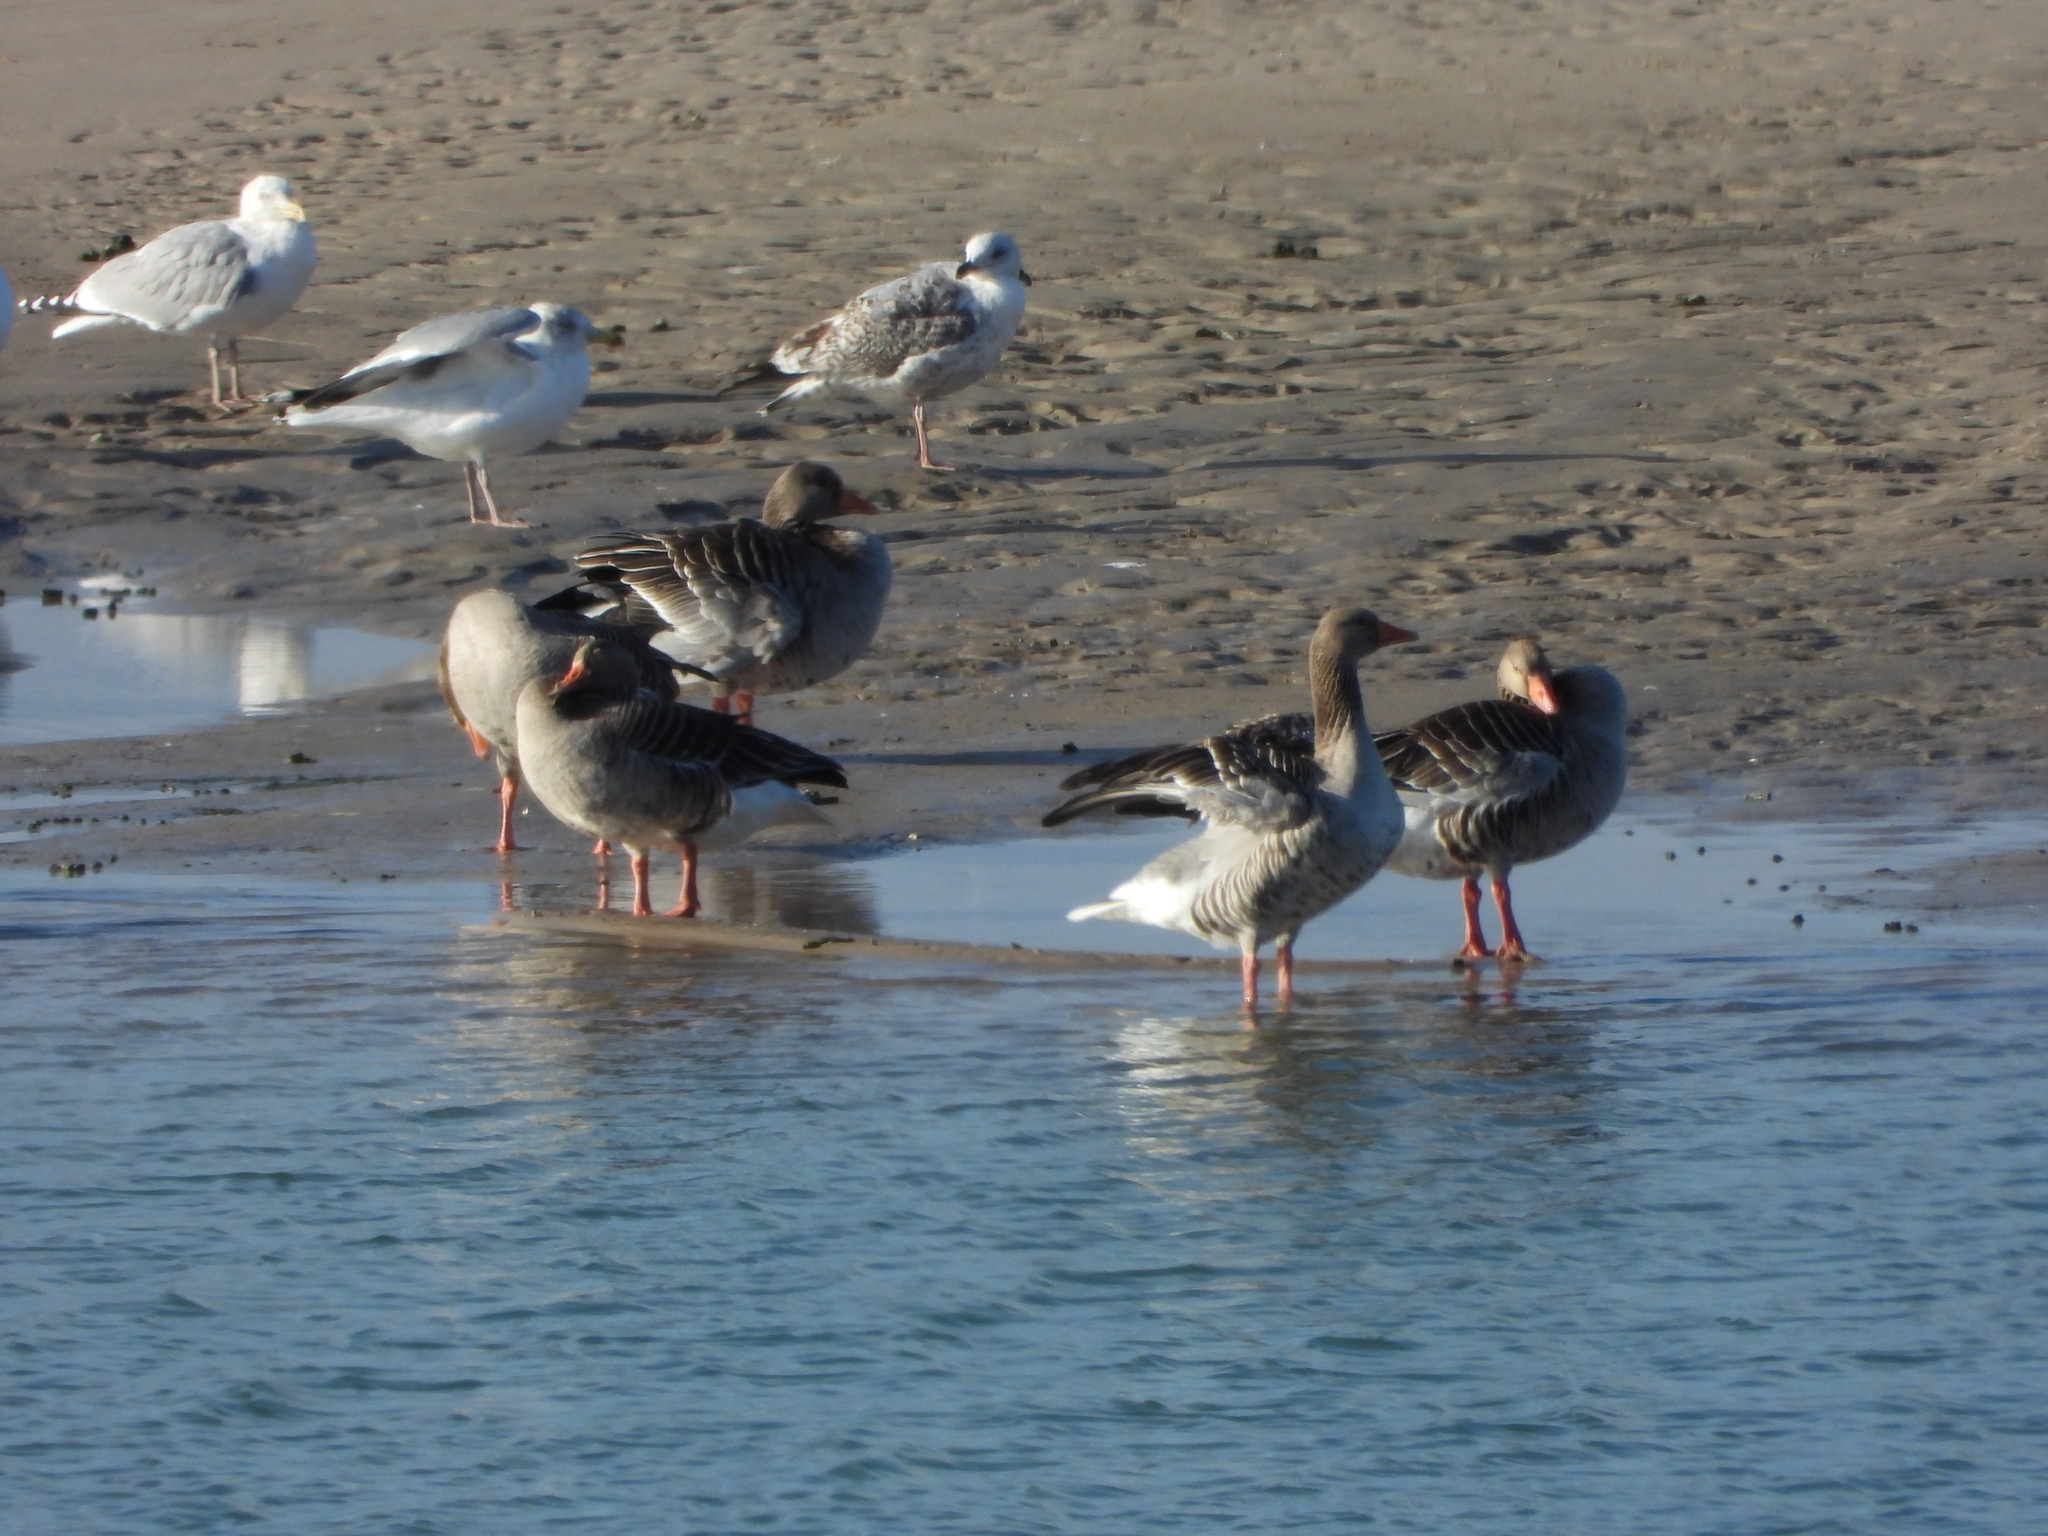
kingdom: Animalia
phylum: Chordata
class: Aves
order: Anseriformes
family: Anatidae
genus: Anser
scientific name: Anser anser
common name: Greylag goose
